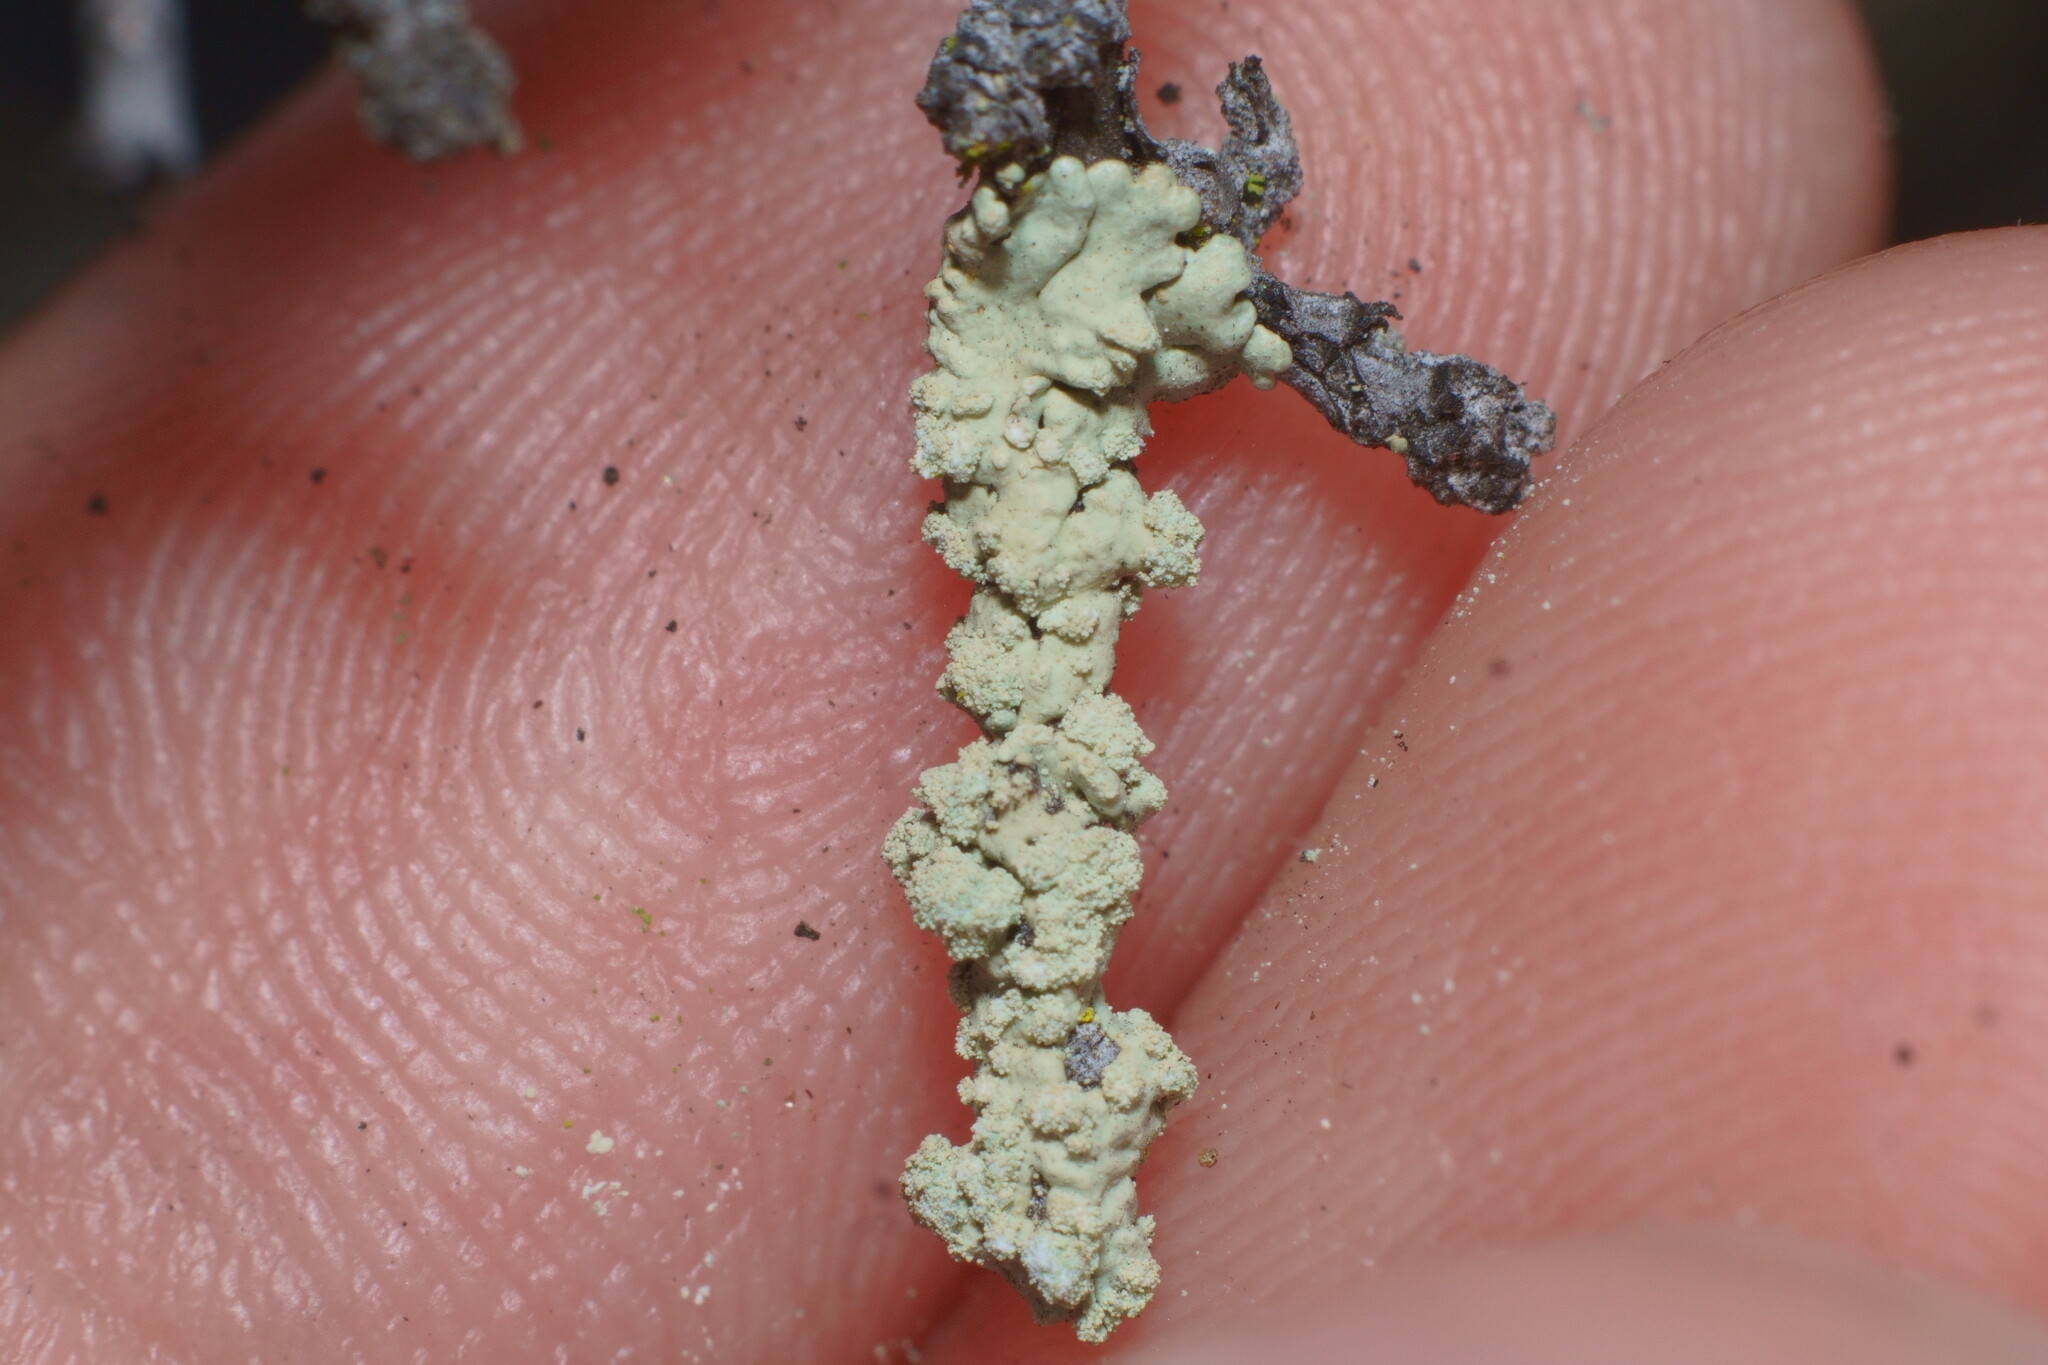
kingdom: Fungi
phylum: Ascomycota
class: Lecanoromycetes
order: Lecanorales
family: Parmeliaceae
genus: Flavoparmelia
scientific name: Flavoparmelia subcapitata
